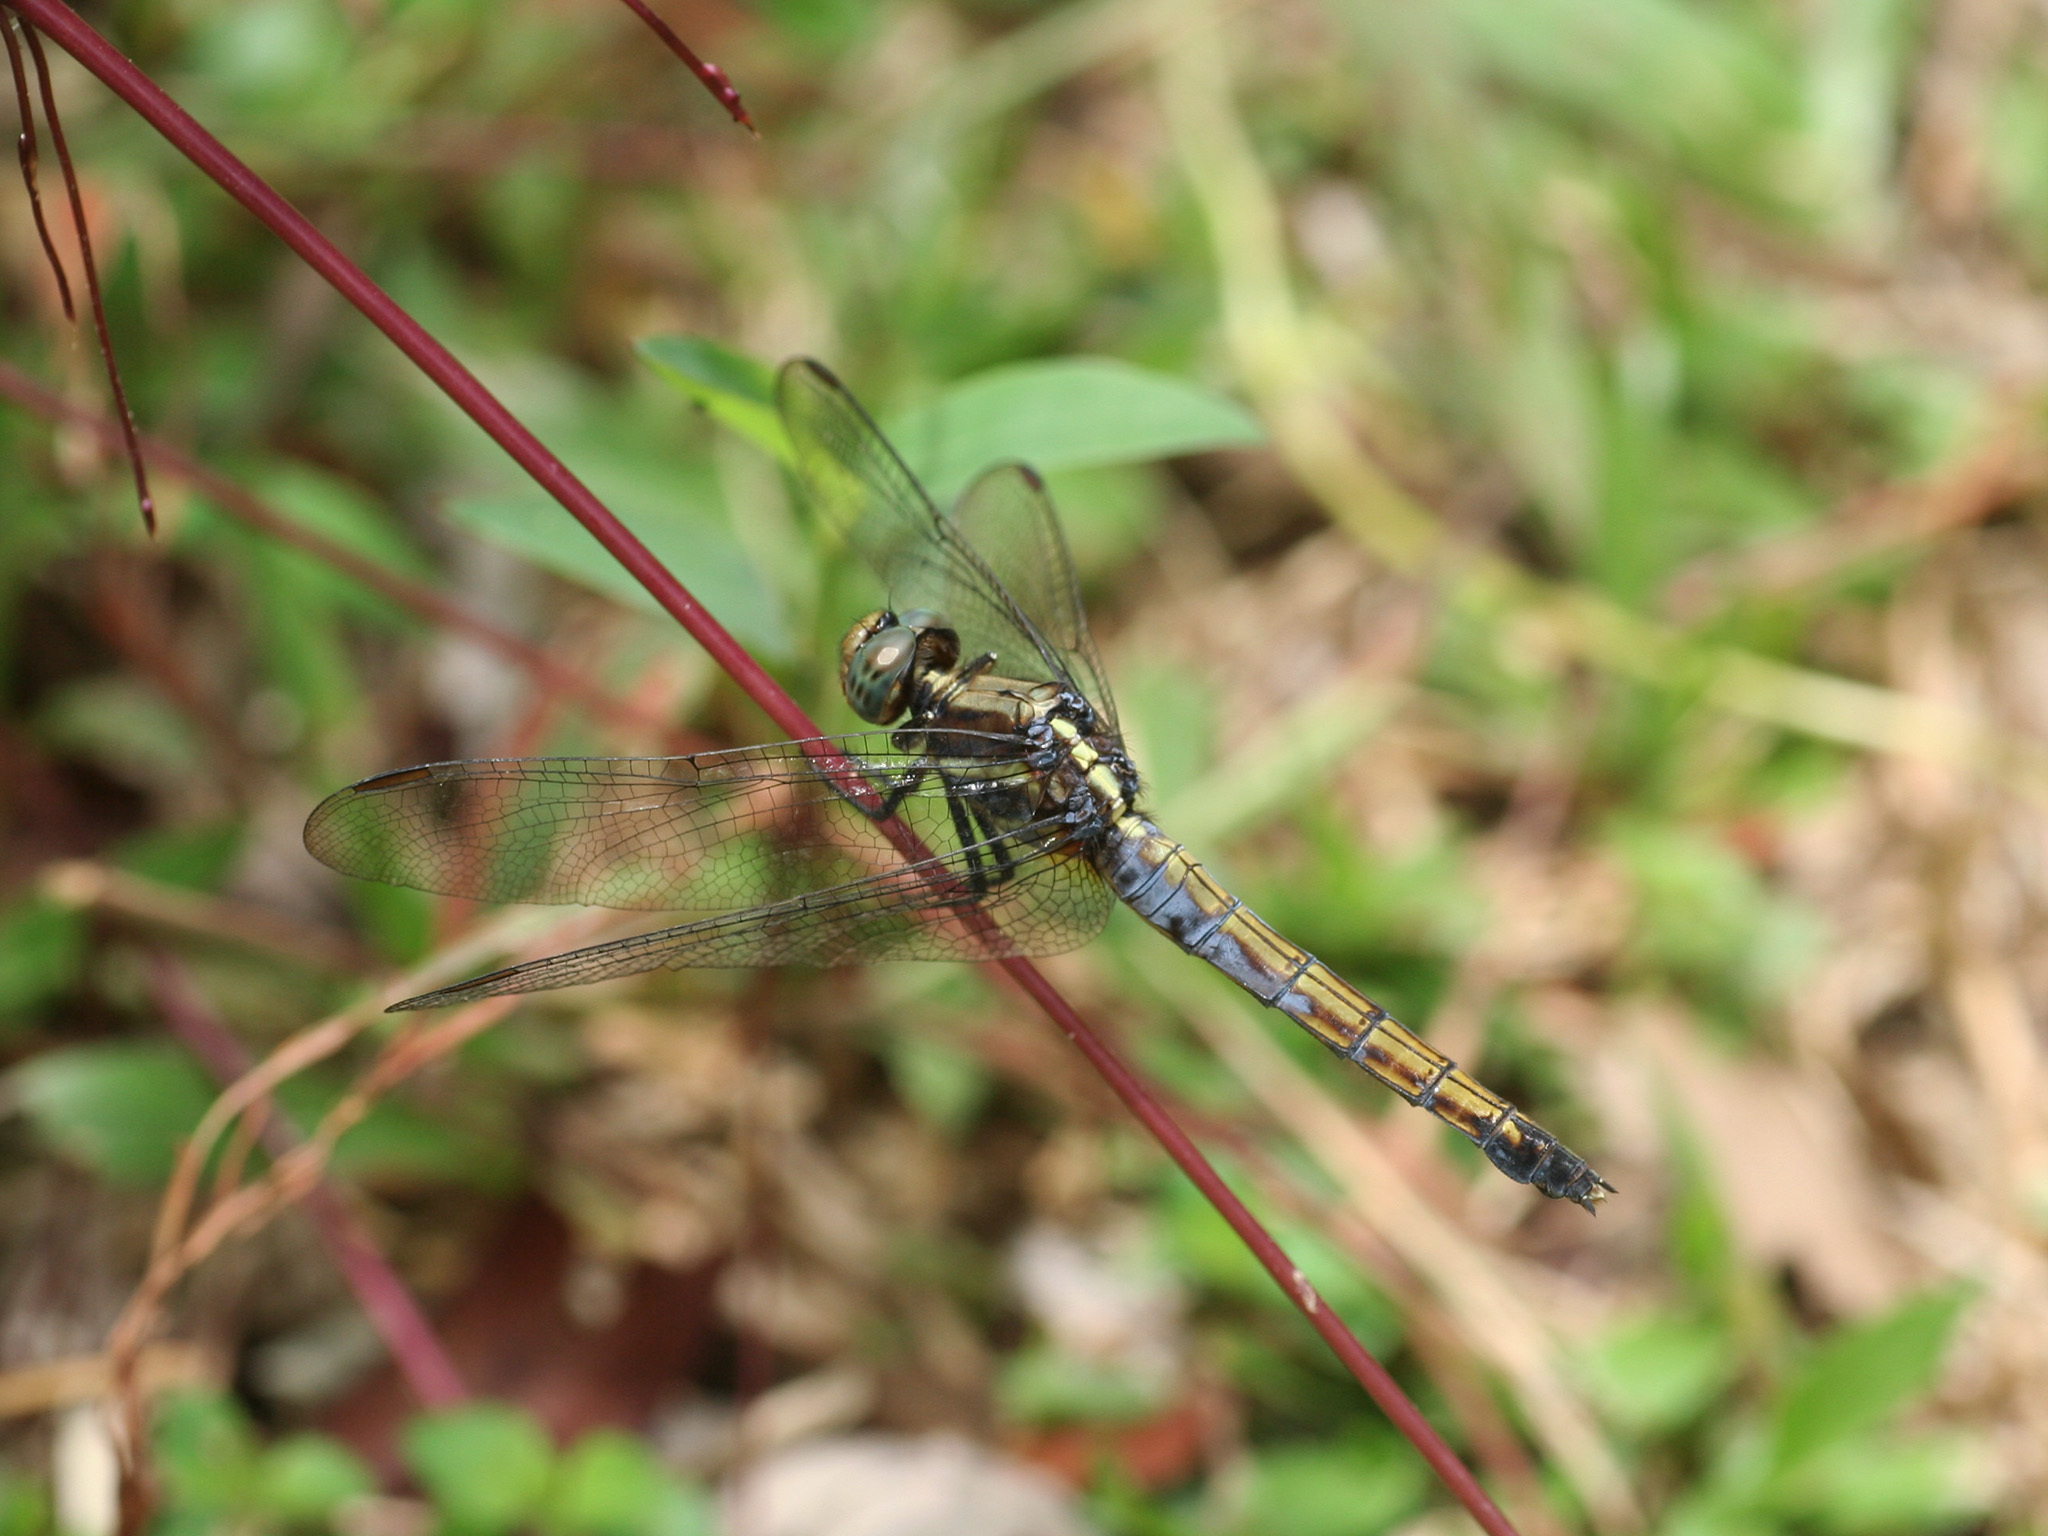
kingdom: Animalia
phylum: Arthropoda
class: Insecta
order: Odonata
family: Libellulidae
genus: Orthetrum
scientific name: Orthetrum glaucum
